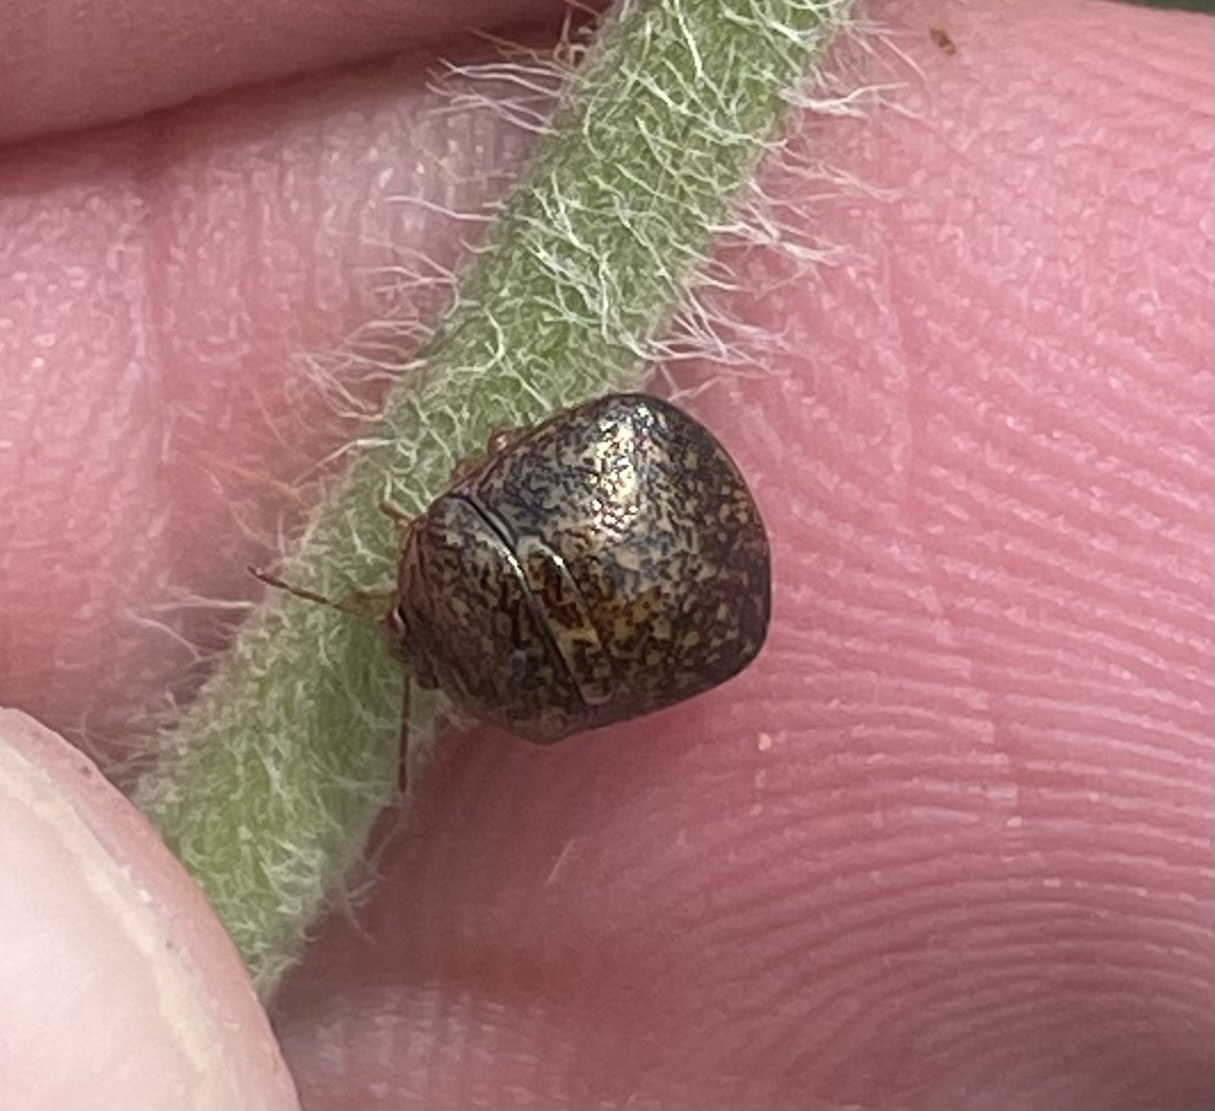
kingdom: Animalia
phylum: Arthropoda
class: Insecta
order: Hemiptera
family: Plataspidae
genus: Megacopta
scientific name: Megacopta cribraria
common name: Bean plataspid
